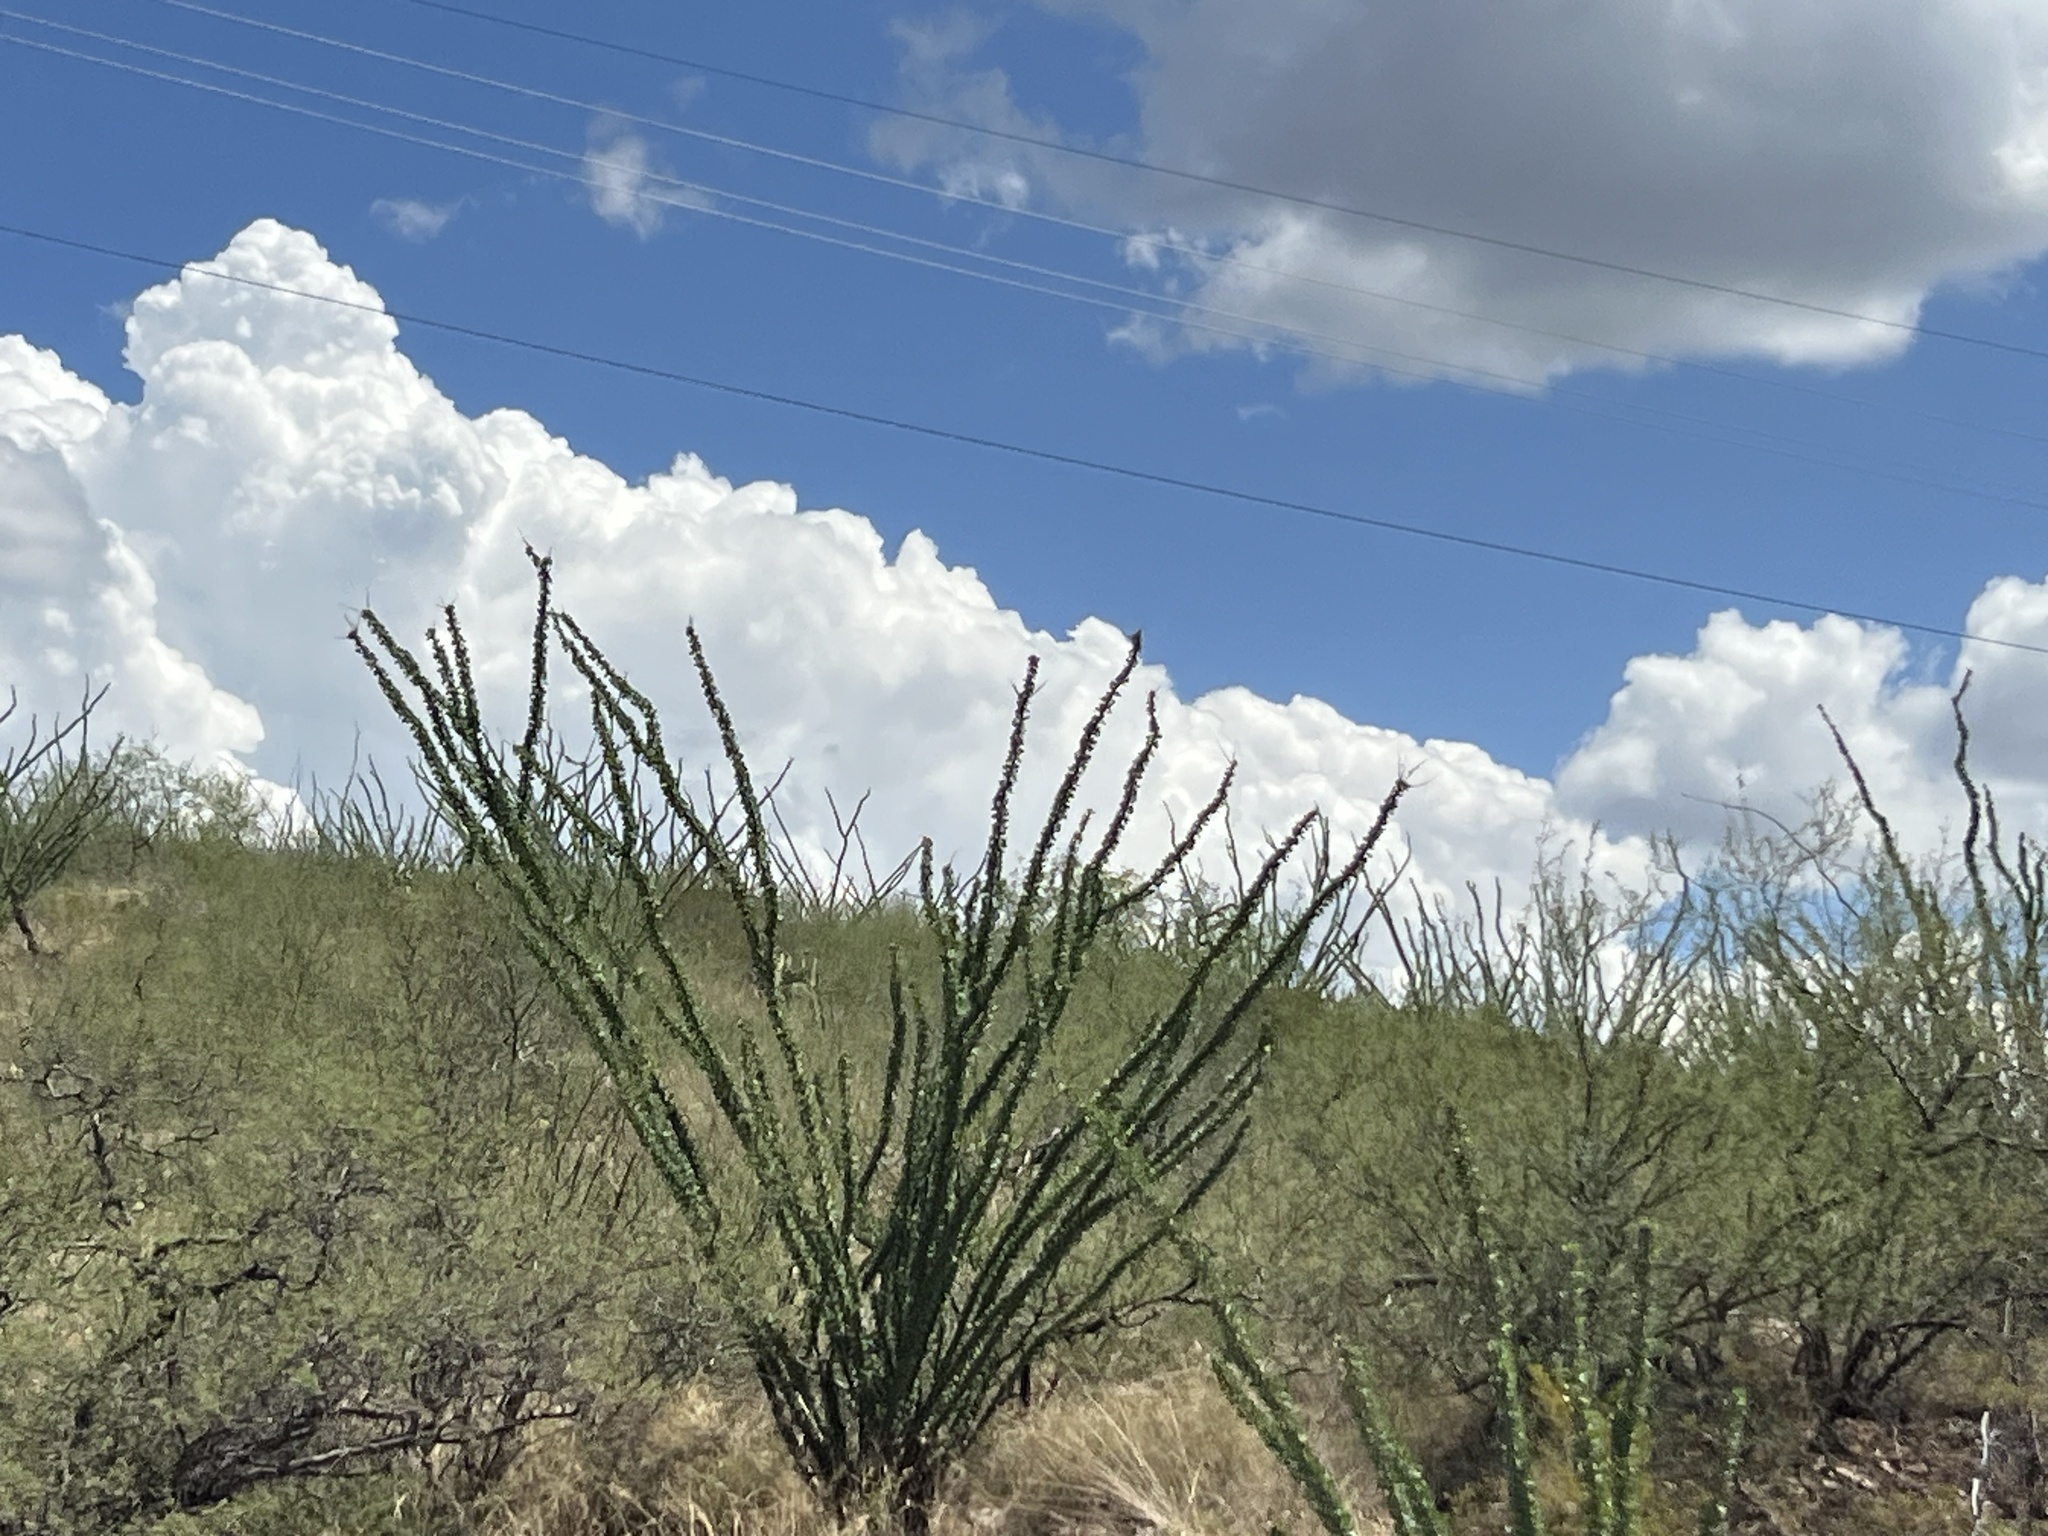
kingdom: Plantae
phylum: Tracheophyta
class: Magnoliopsida
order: Ericales
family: Fouquieriaceae
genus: Fouquieria
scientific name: Fouquieria splendens
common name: Vine-cactus
